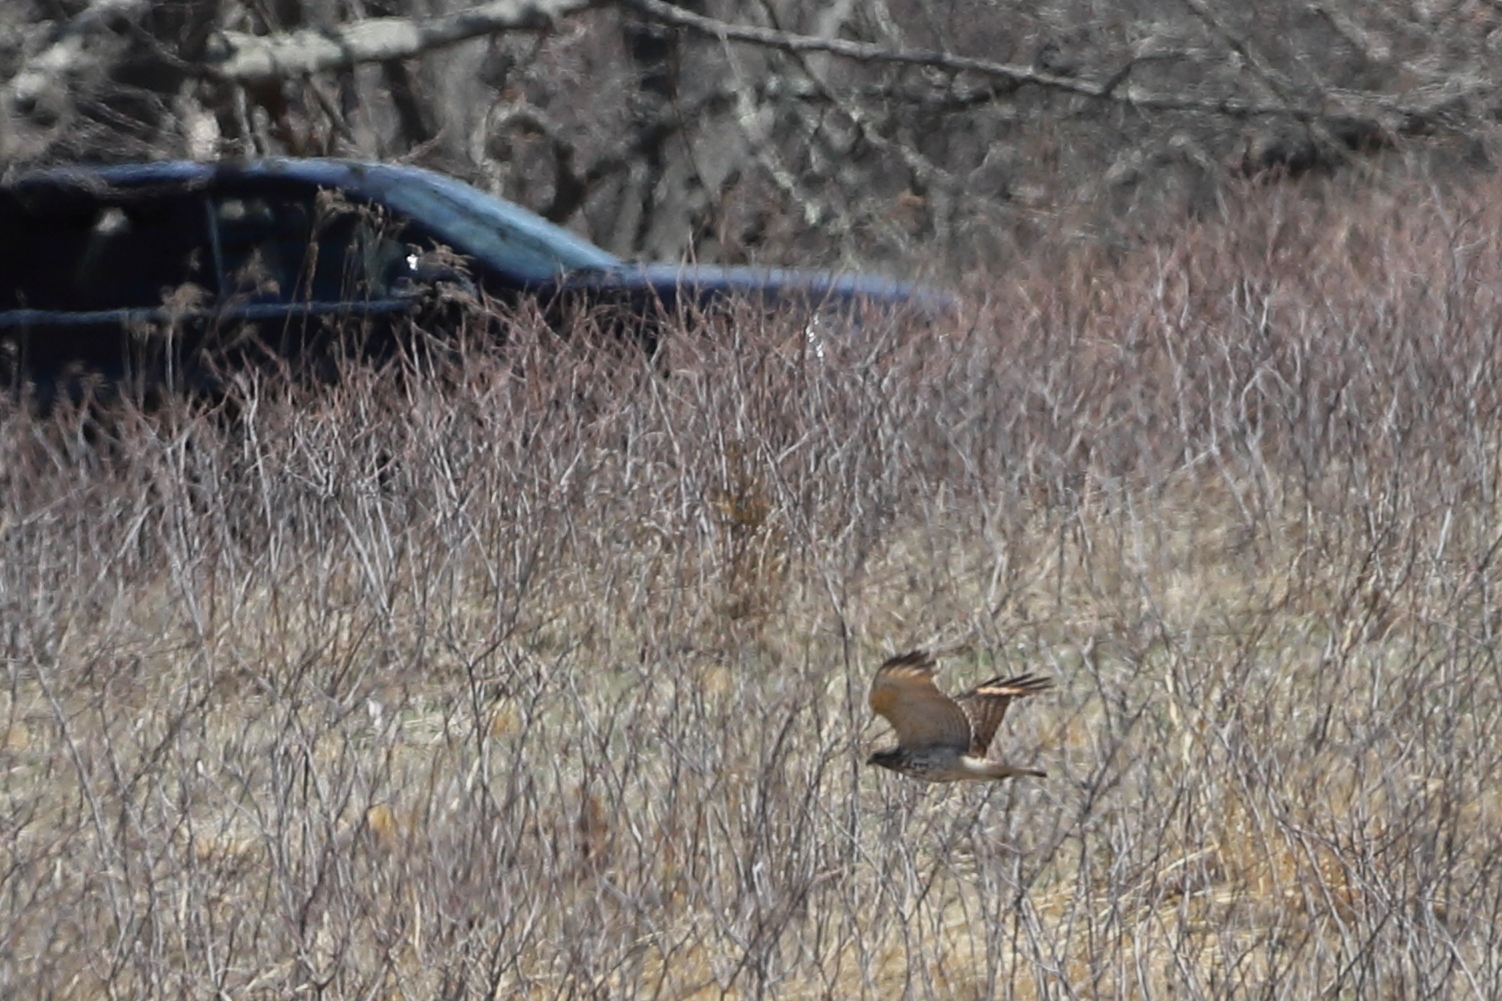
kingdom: Animalia
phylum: Chordata
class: Aves
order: Accipitriformes
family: Accipitridae
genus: Buteo
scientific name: Buteo lineatus
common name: Red-shouldered hawk
